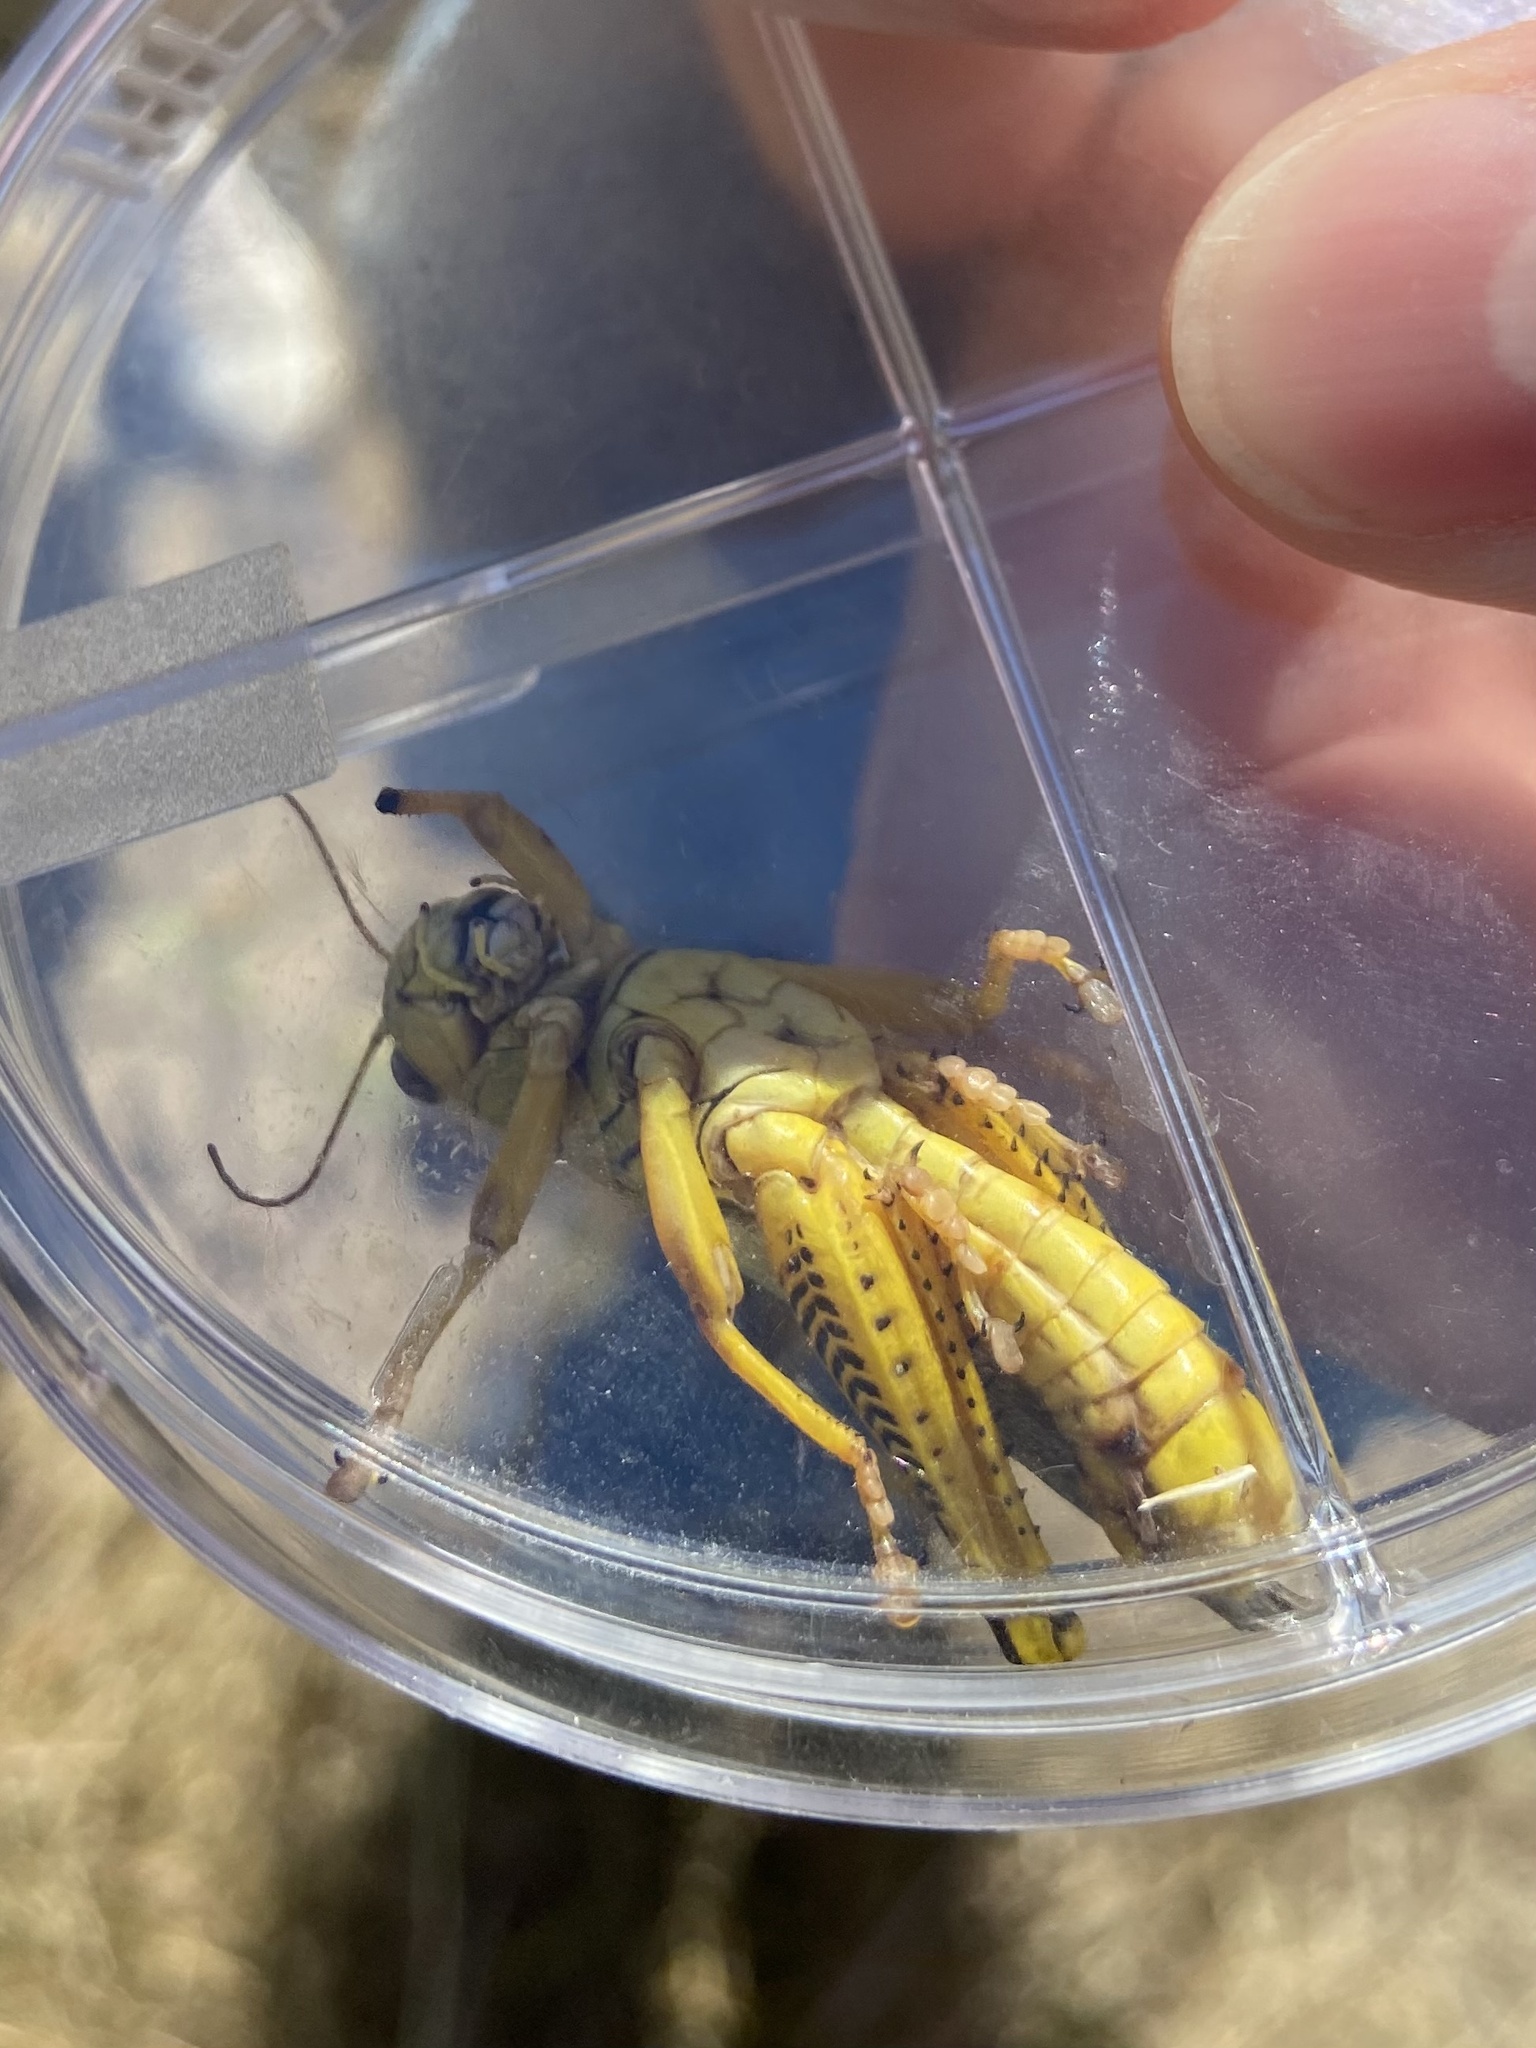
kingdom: Animalia
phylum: Arthropoda
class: Insecta
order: Orthoptera
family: Acrididae
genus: Melanoplus
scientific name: Melanoplus differentialis
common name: Differential grasshopper
